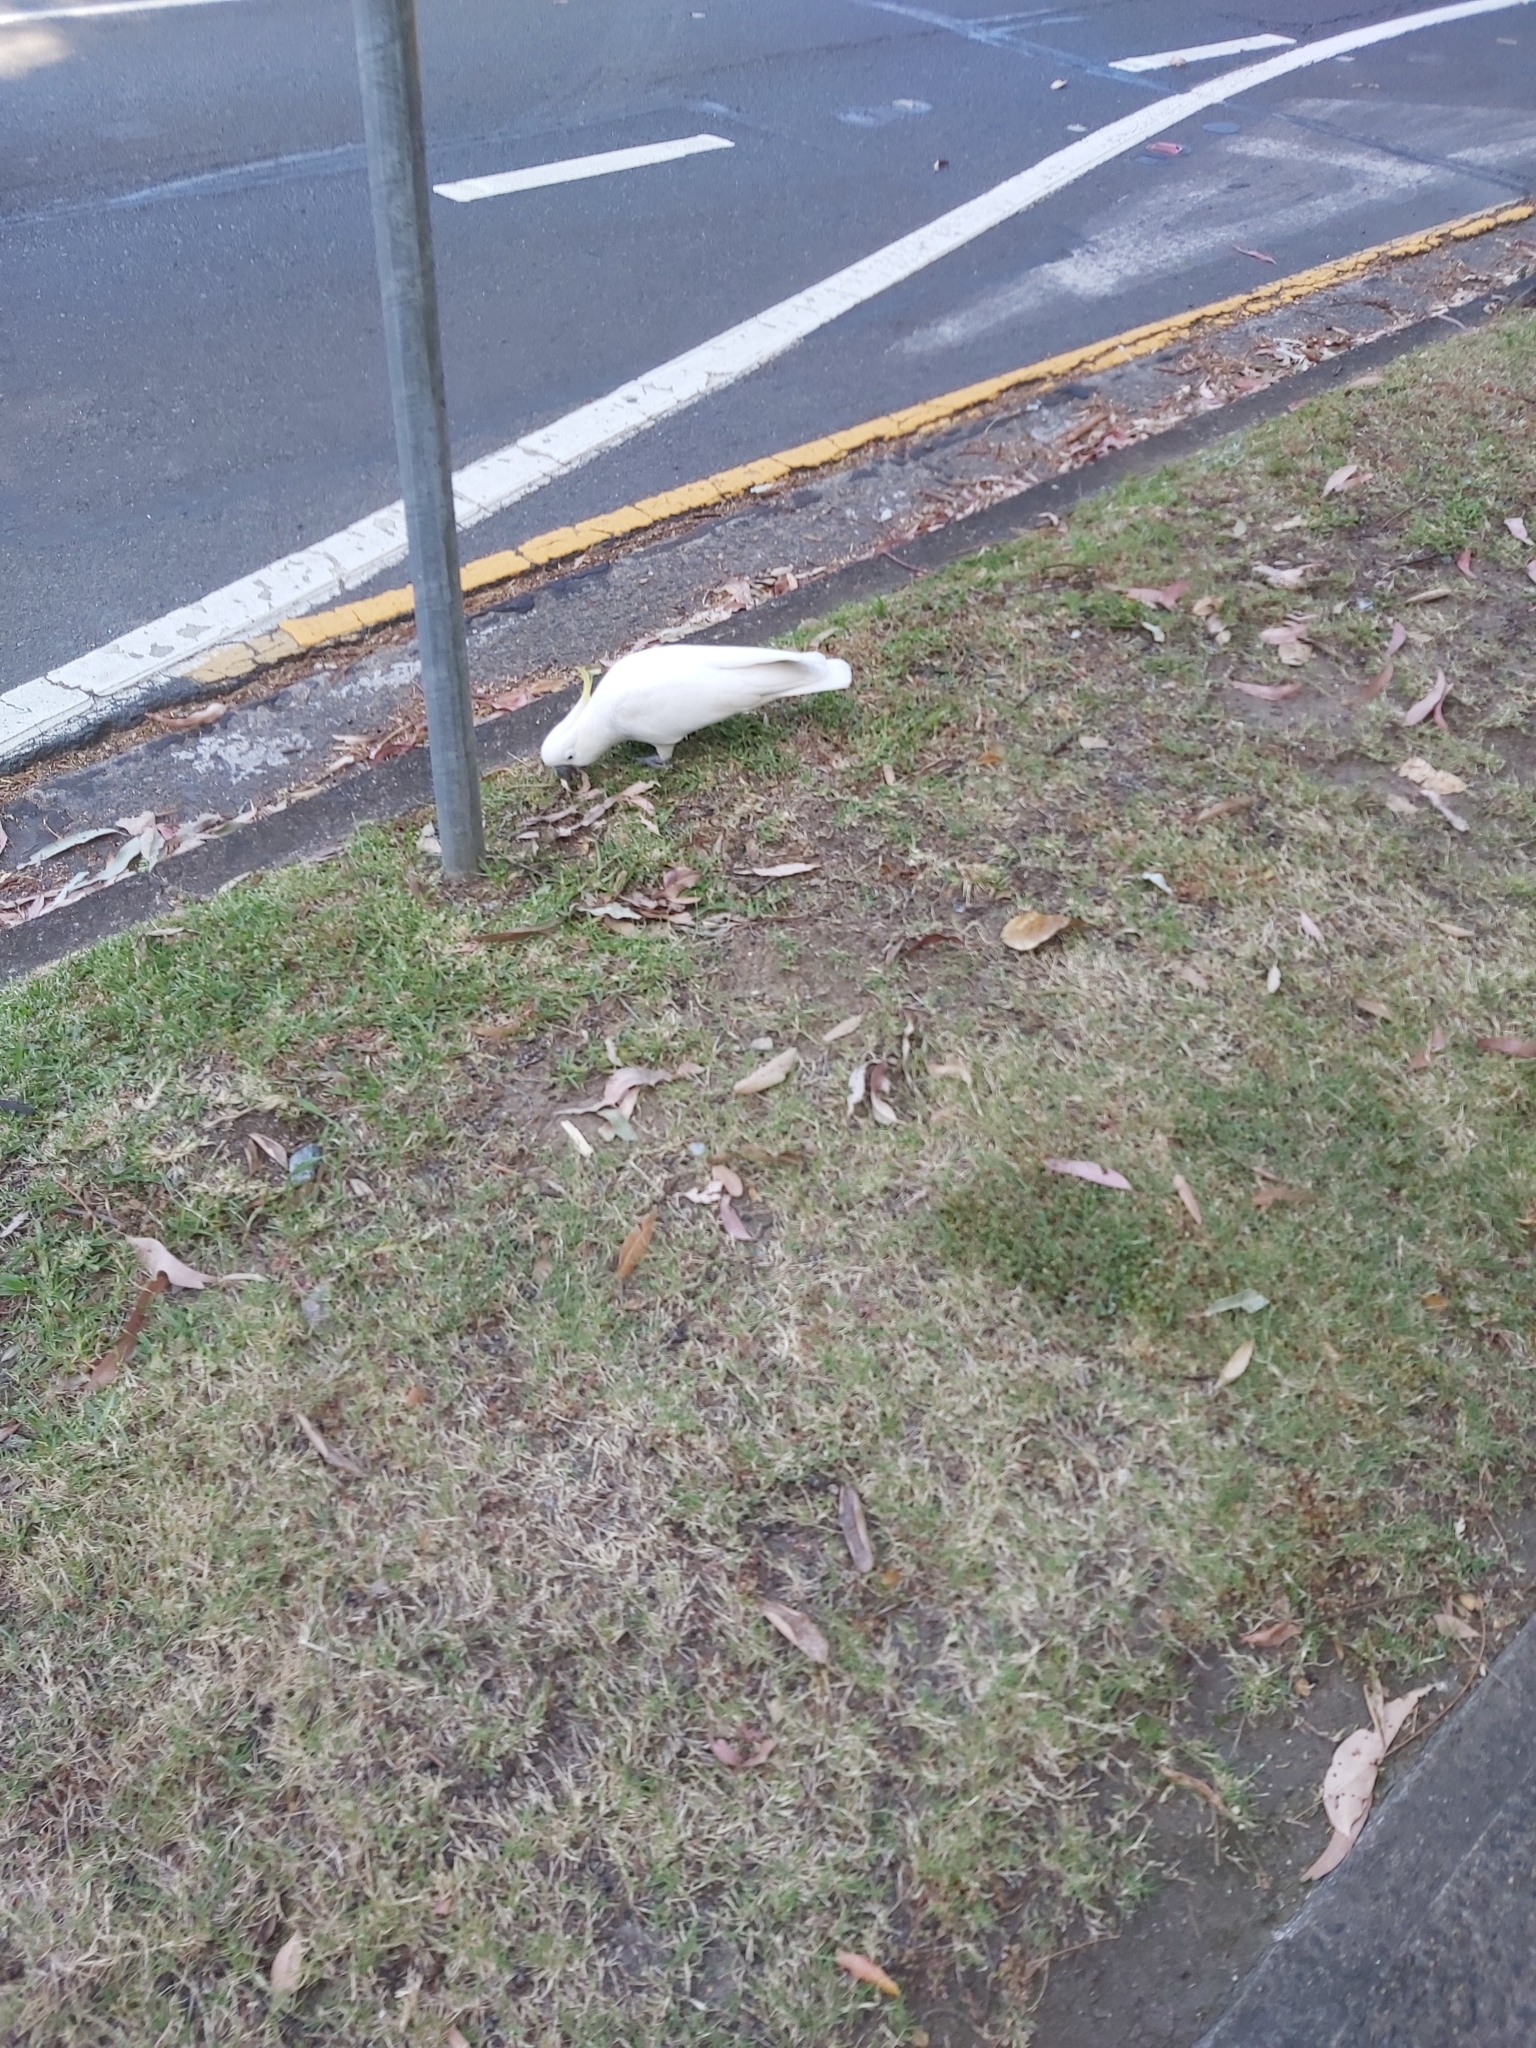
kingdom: Animalia
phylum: Chordata
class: Aves
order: Psittaciformes
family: Psittacidae
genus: Cacatua
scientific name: Cacatua galerita
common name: Sulphur-crested cockatoo
